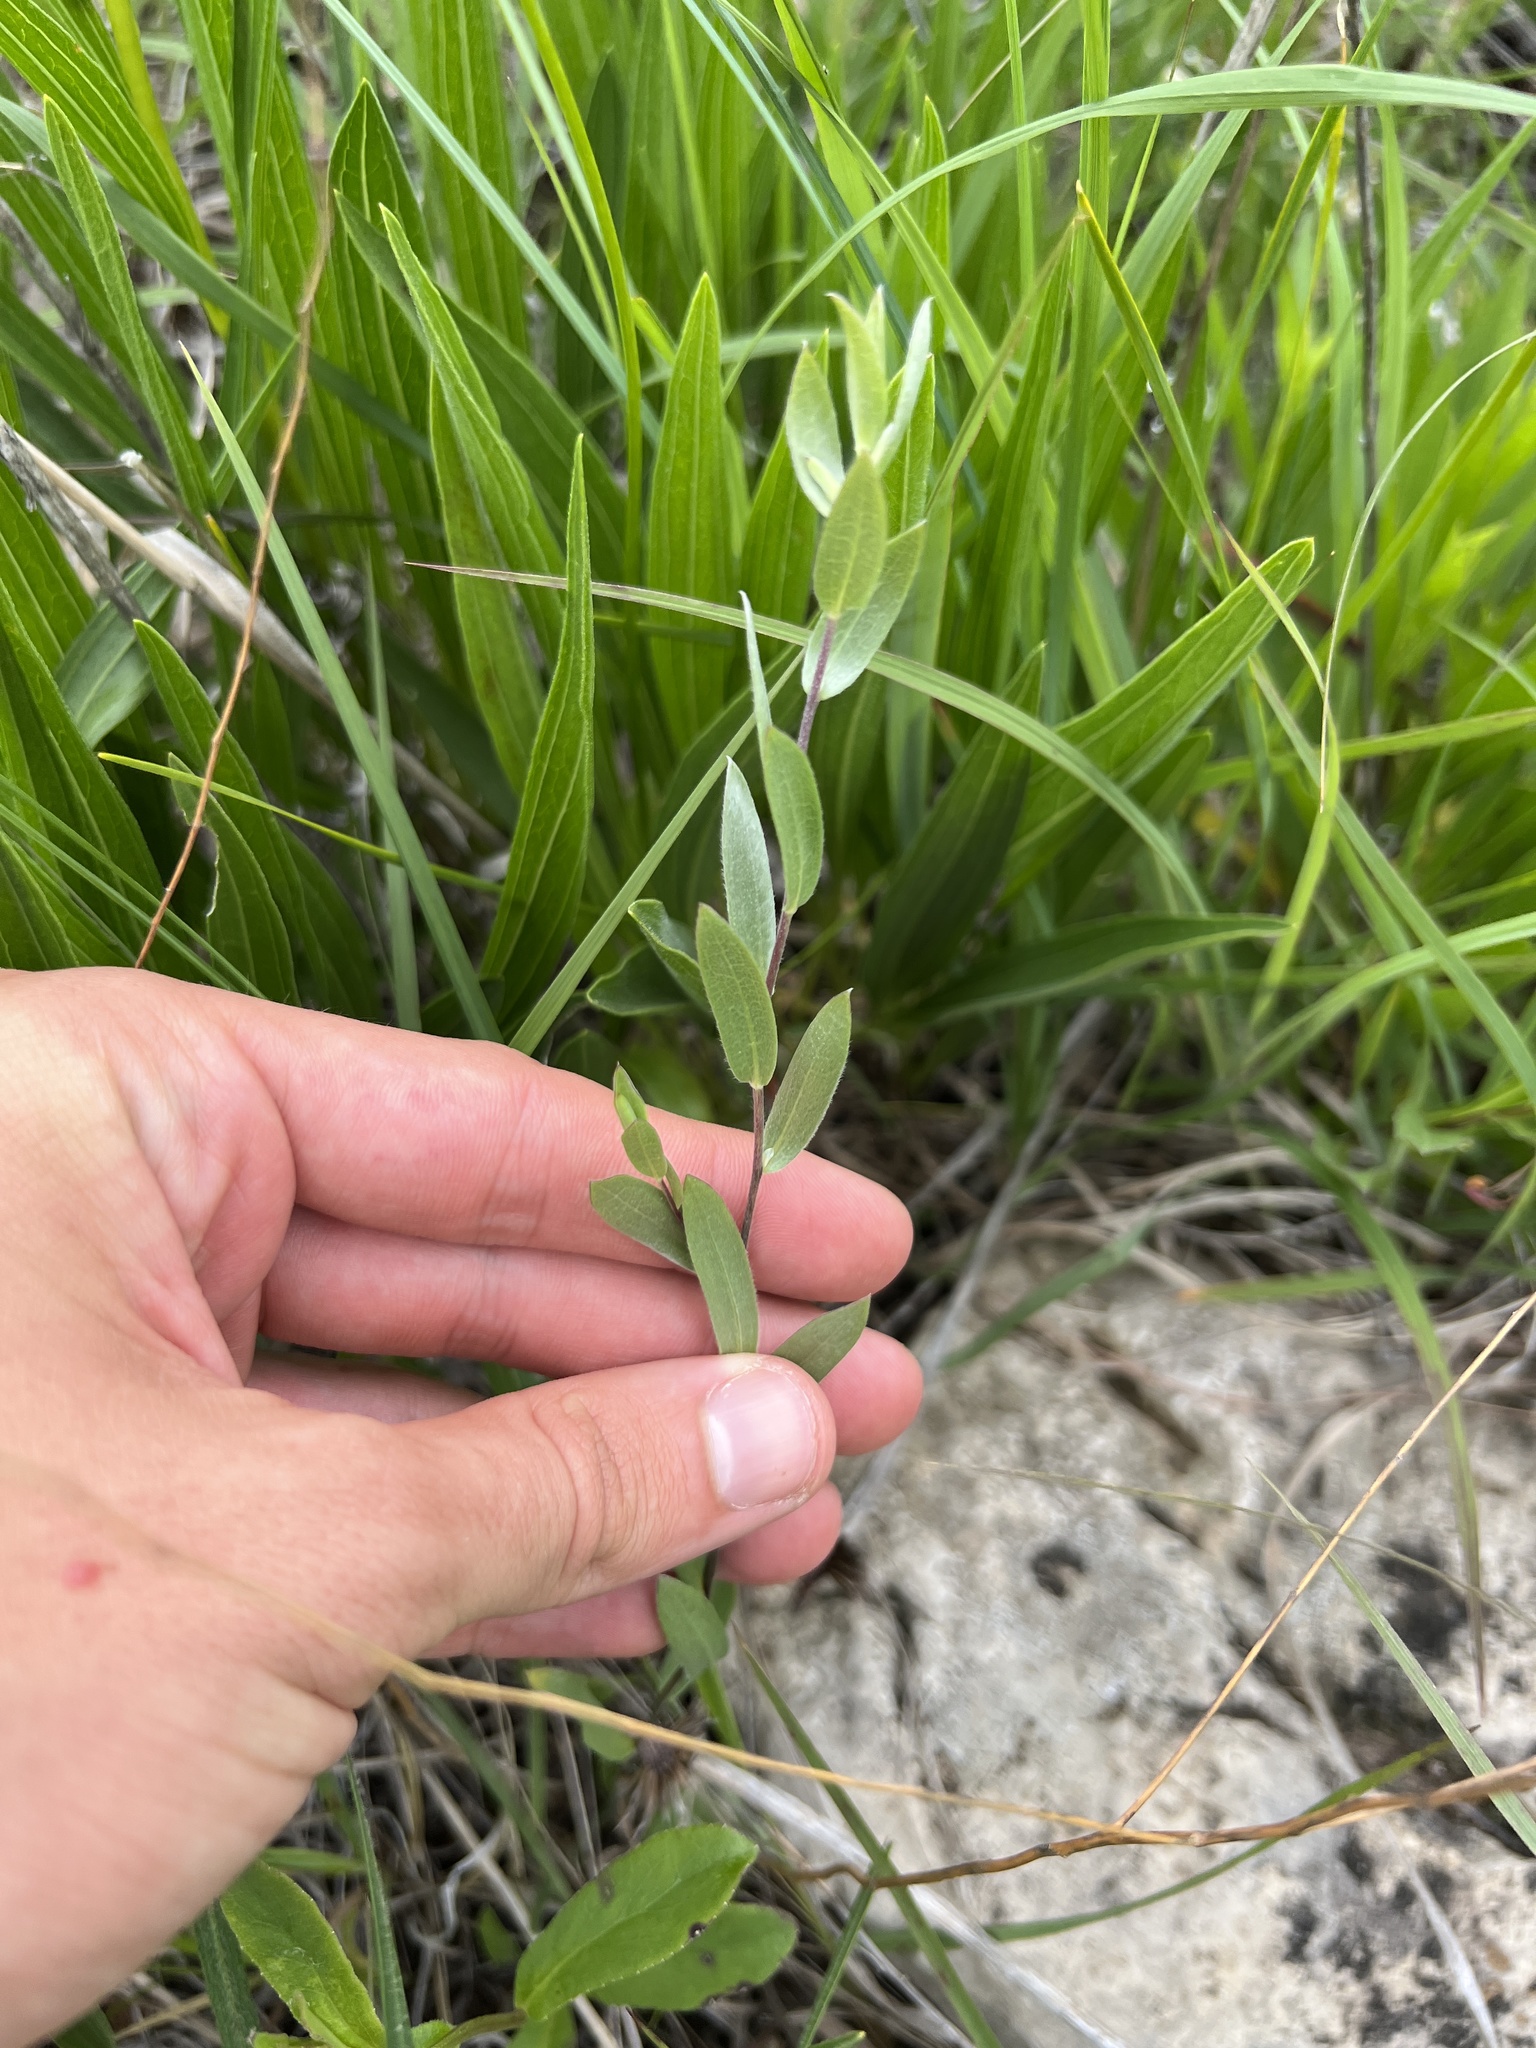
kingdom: Plantae
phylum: Tracheophyta
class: Magnoliopsida
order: Asterales
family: Asteraceae
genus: Symphyotrichum
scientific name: Symphyotrichum sericeum
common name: Silky aster
